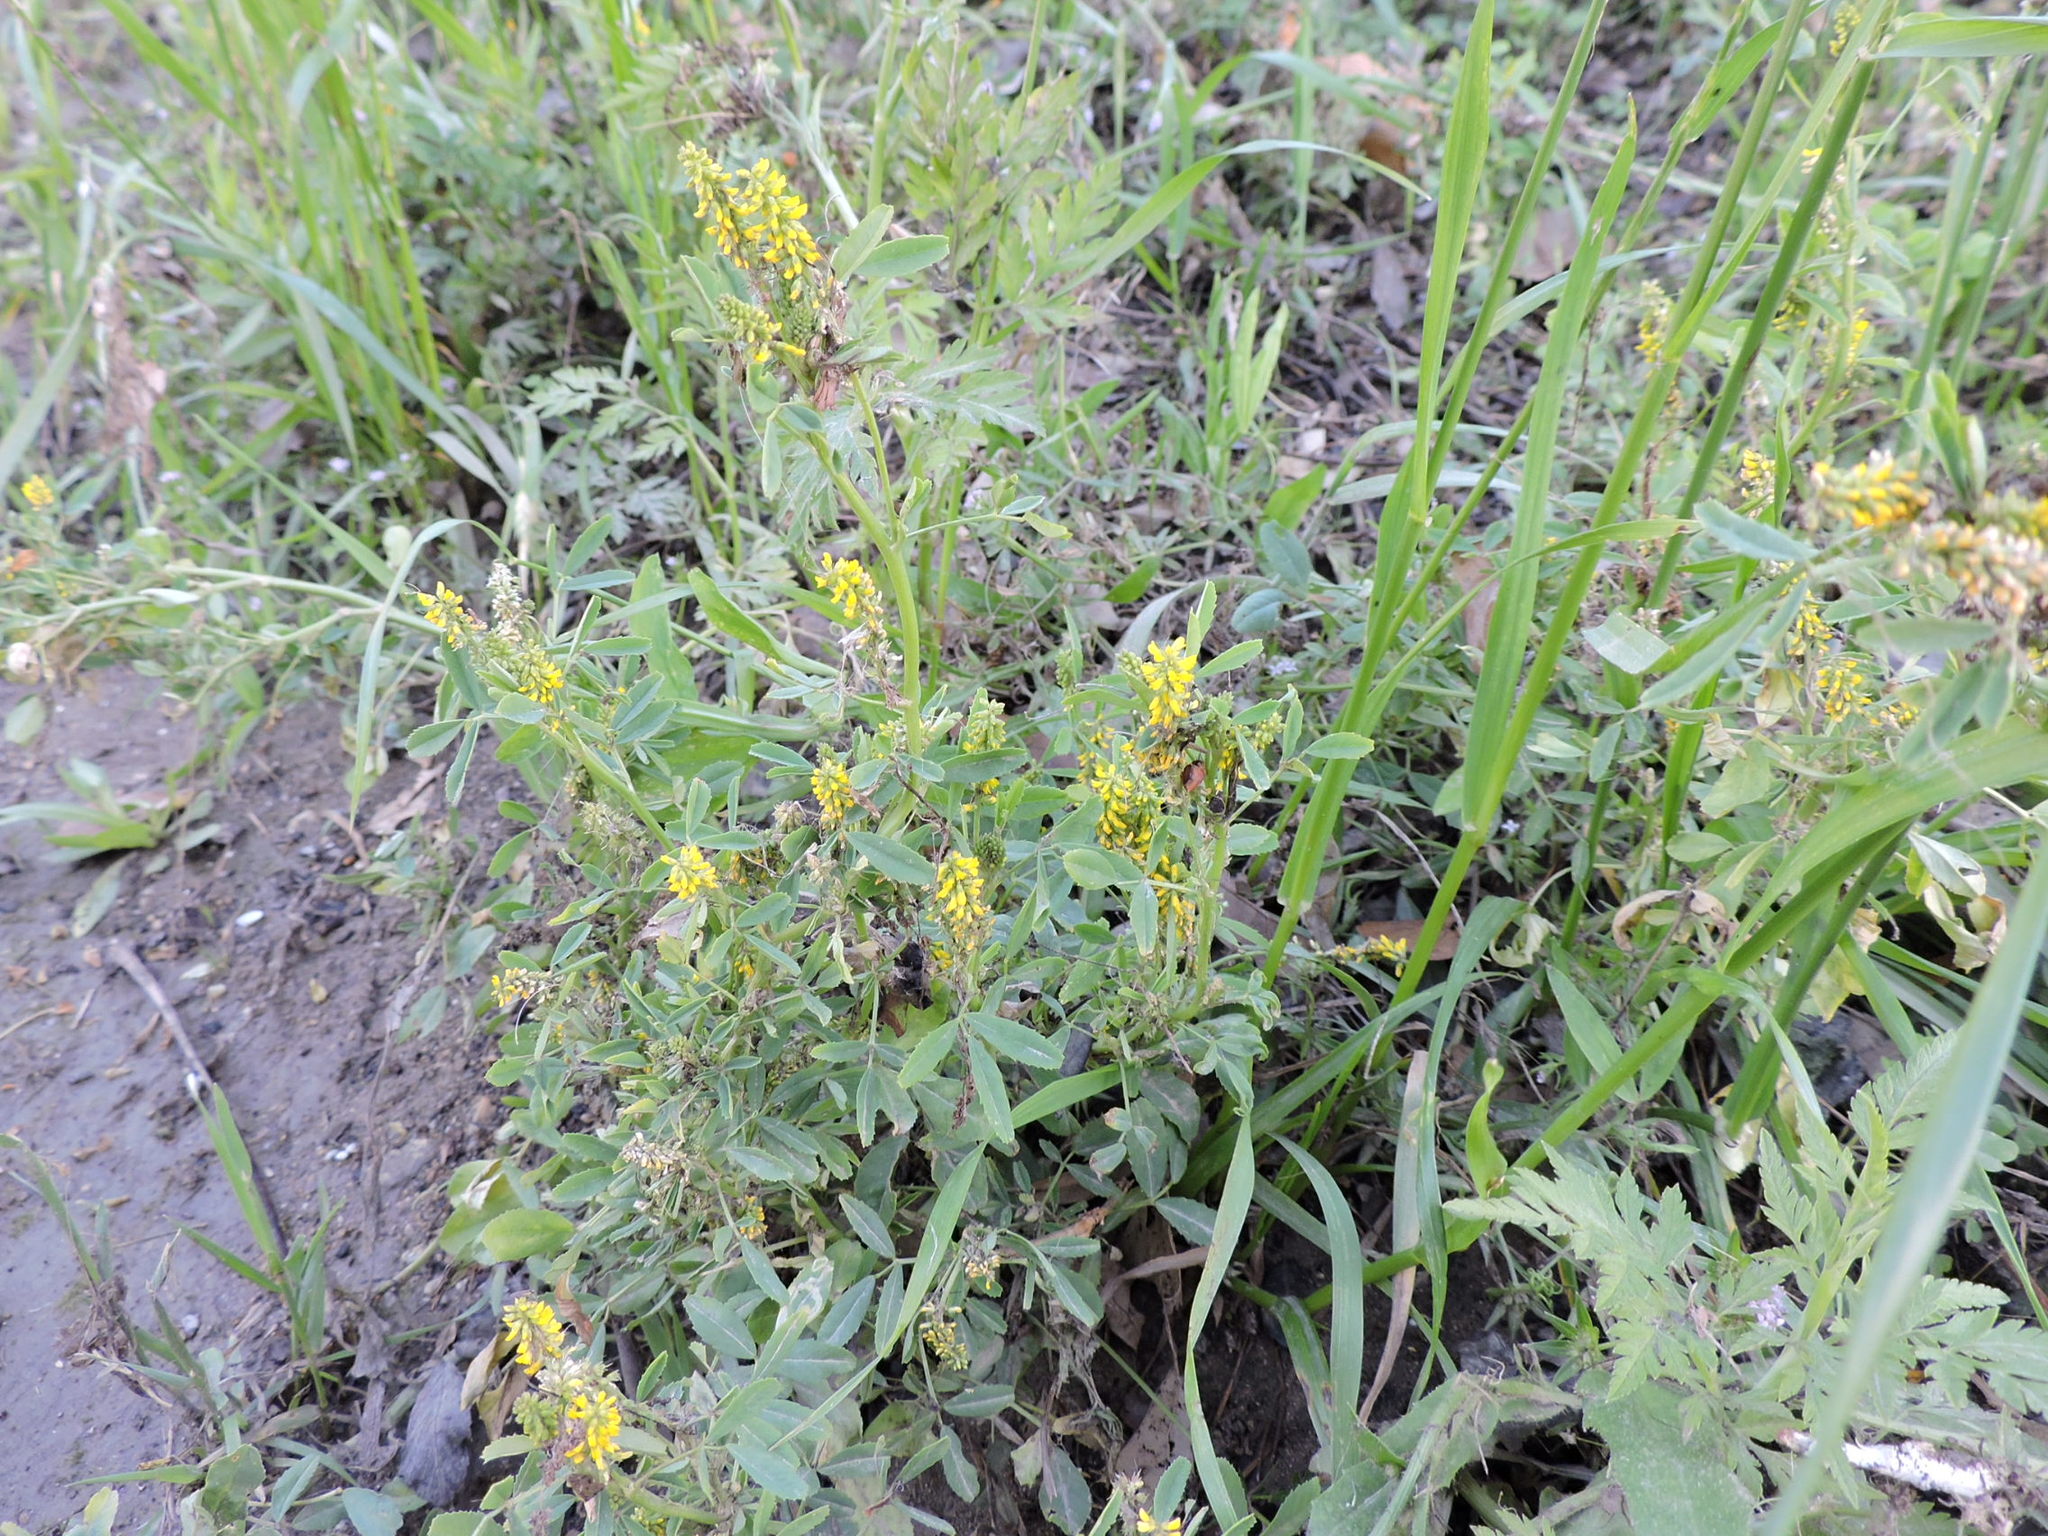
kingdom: Plantae
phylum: Tracheophyta
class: Magnoliopsida
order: Fabales
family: Fabaceae
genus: Melilotus
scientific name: Melilotus indicus
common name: Small melilot
